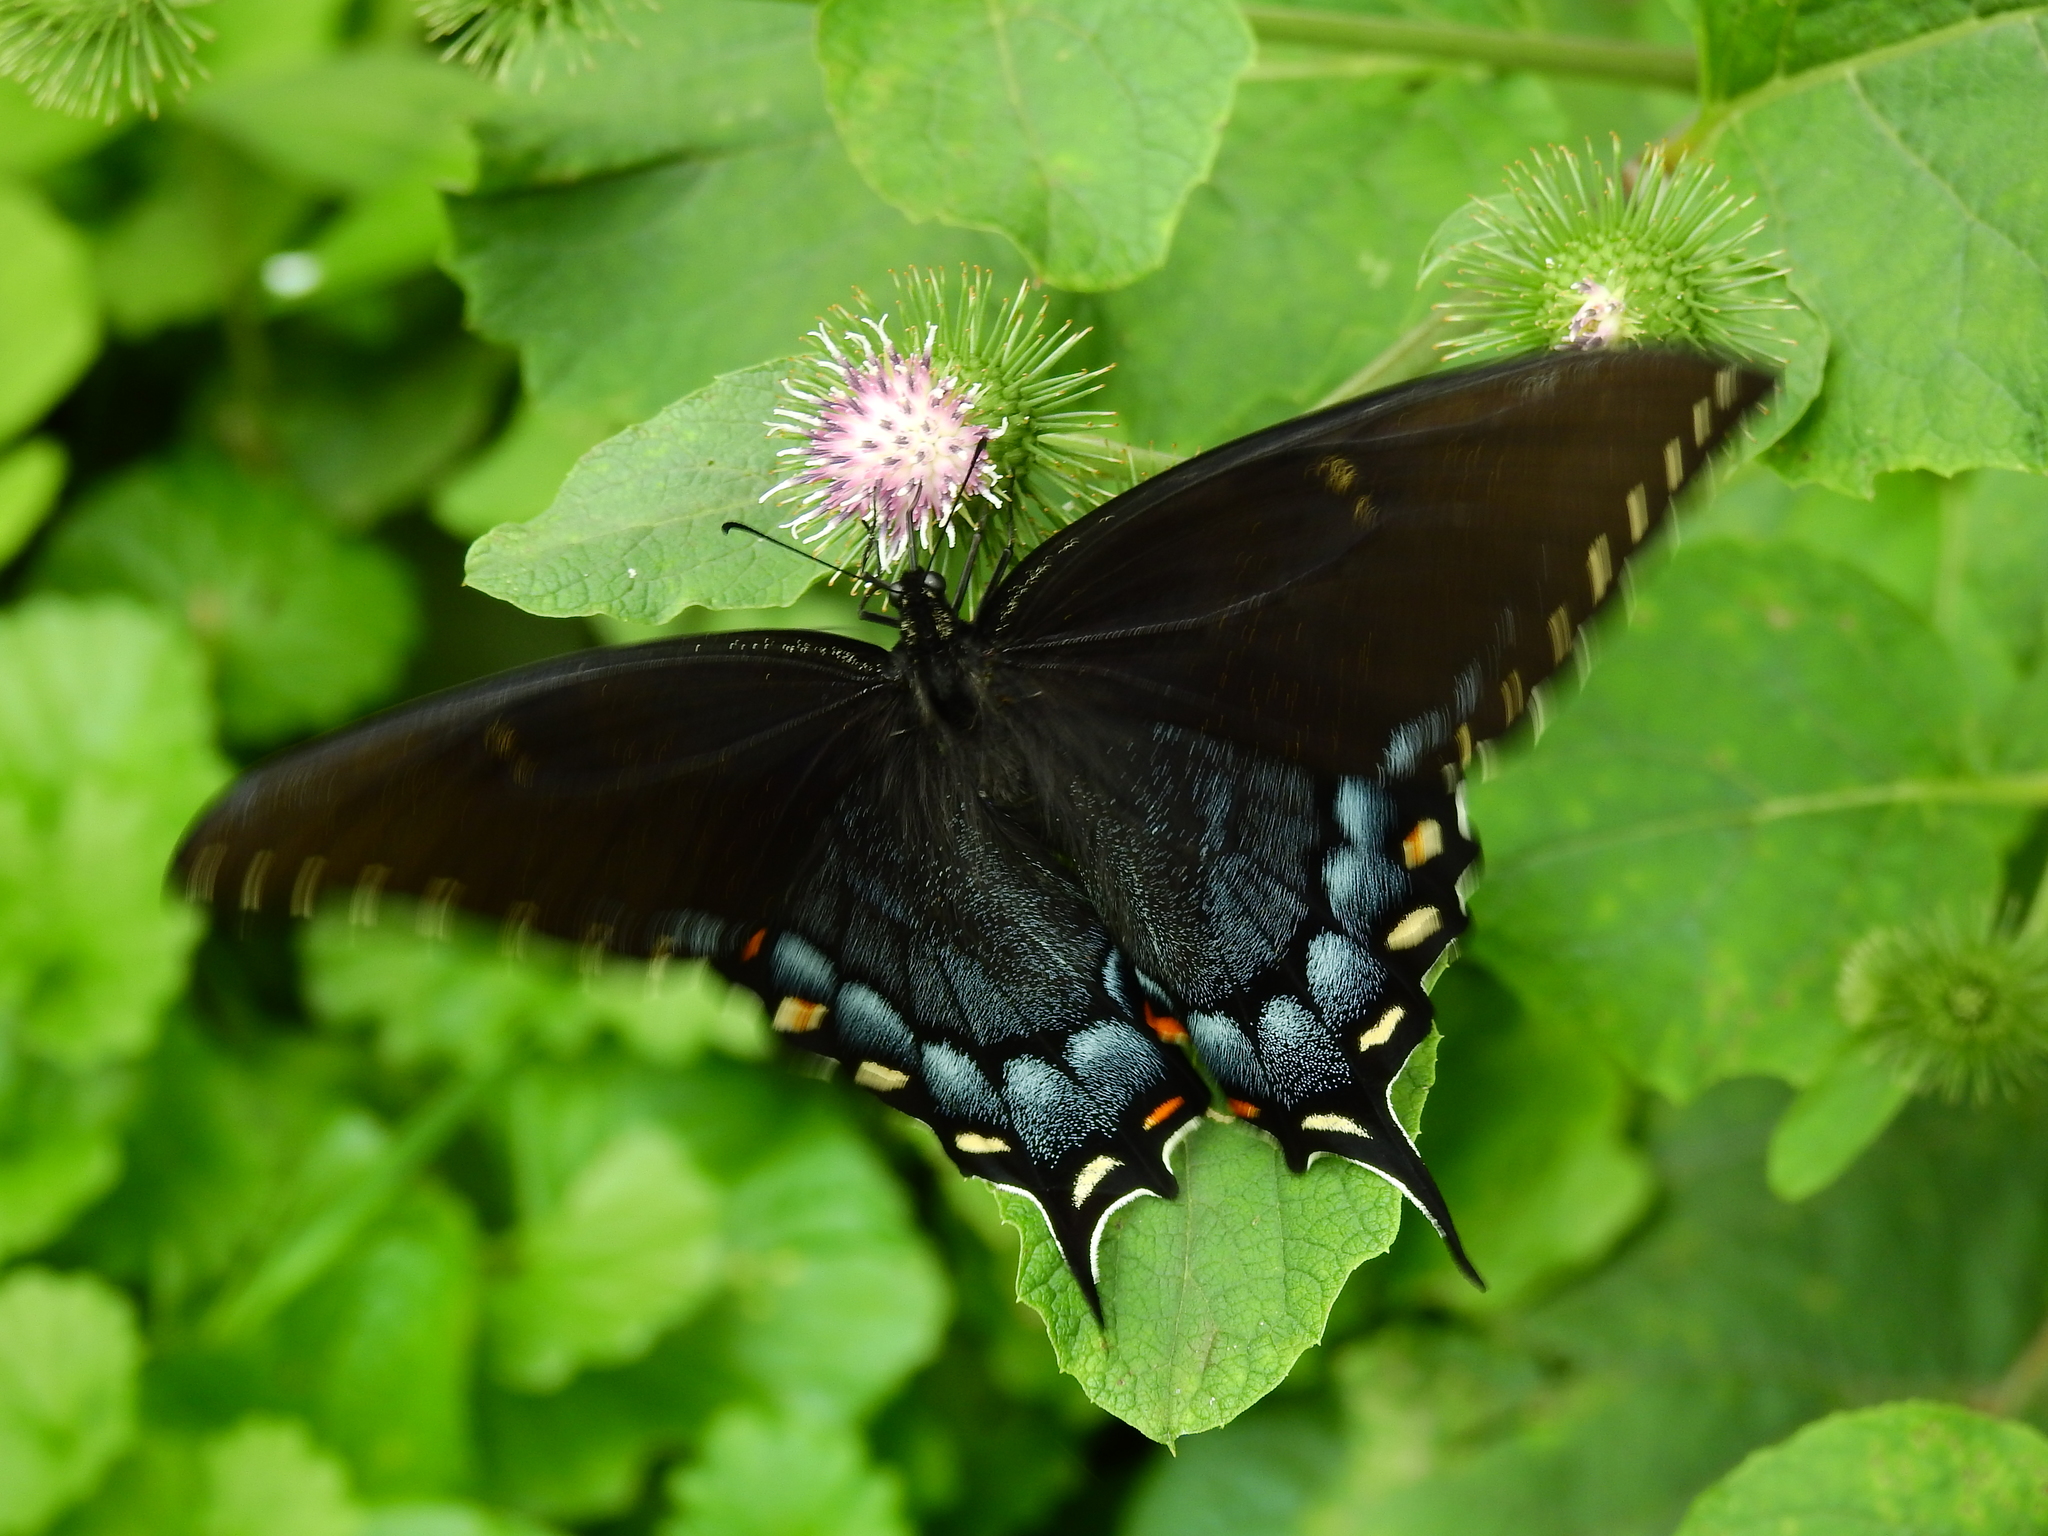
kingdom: Animalia
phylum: Arthropoda
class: Insecta
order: Lepidoptera
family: Papilionidae
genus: Papilio
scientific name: Papilio glaucus
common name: Tiger swallowtail
